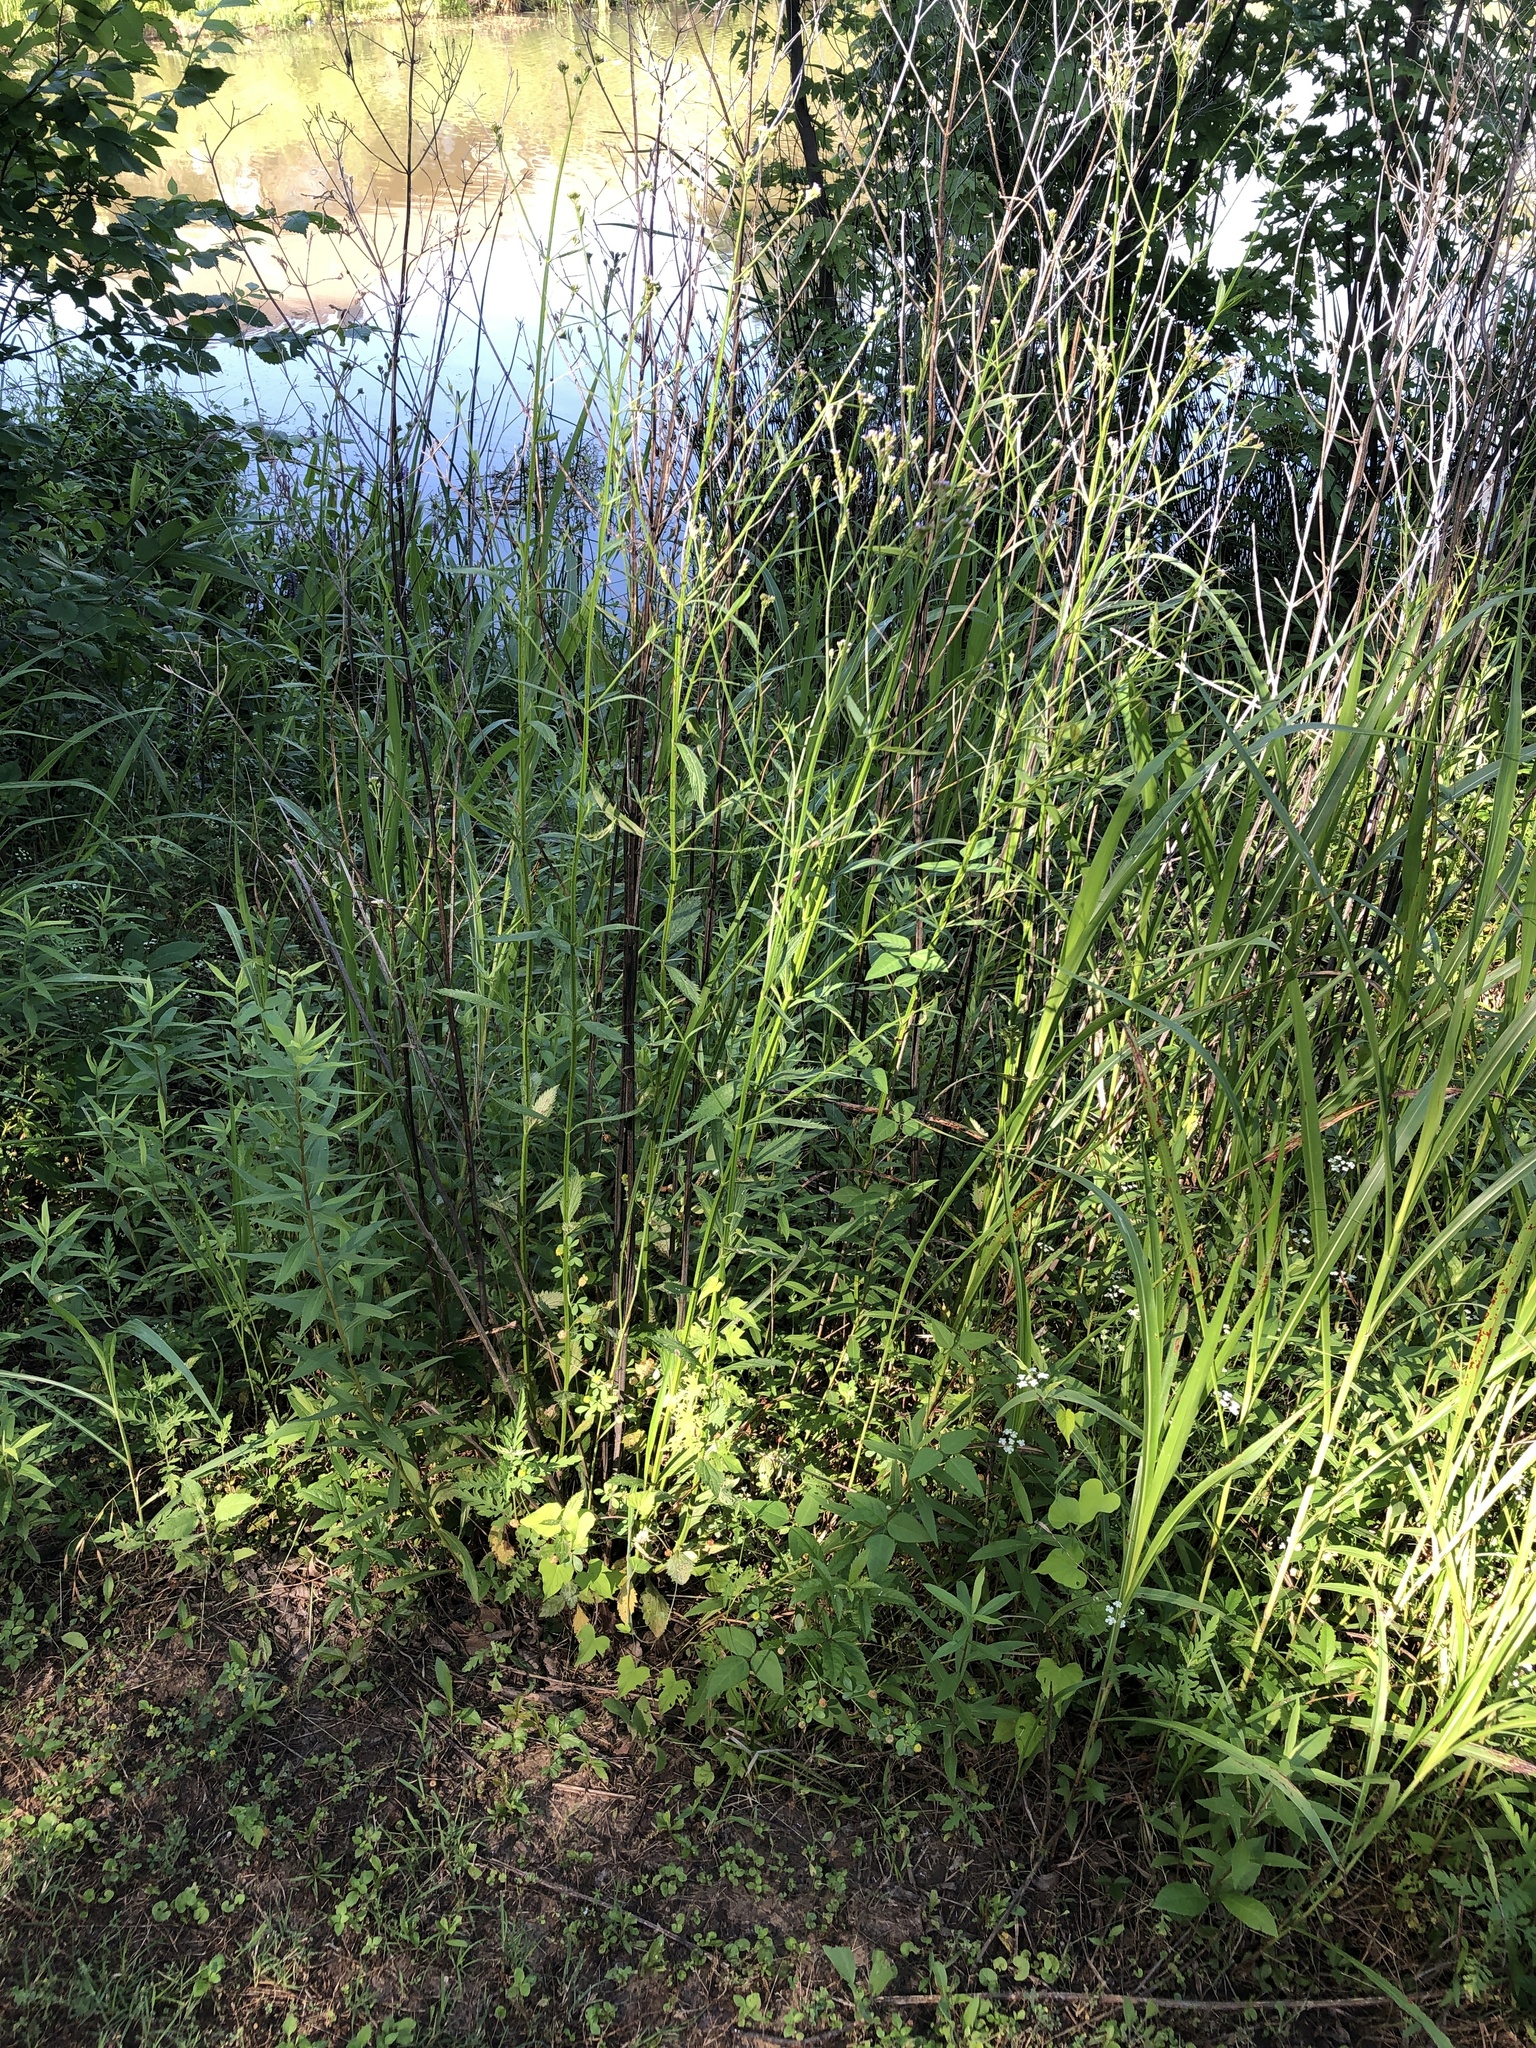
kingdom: Plantae
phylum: Tracheophyta
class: Magnoliopsida
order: Lamiales
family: Verbenaceae
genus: Verbena
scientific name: Verbena brasiliensis
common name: Brazilian vervain
